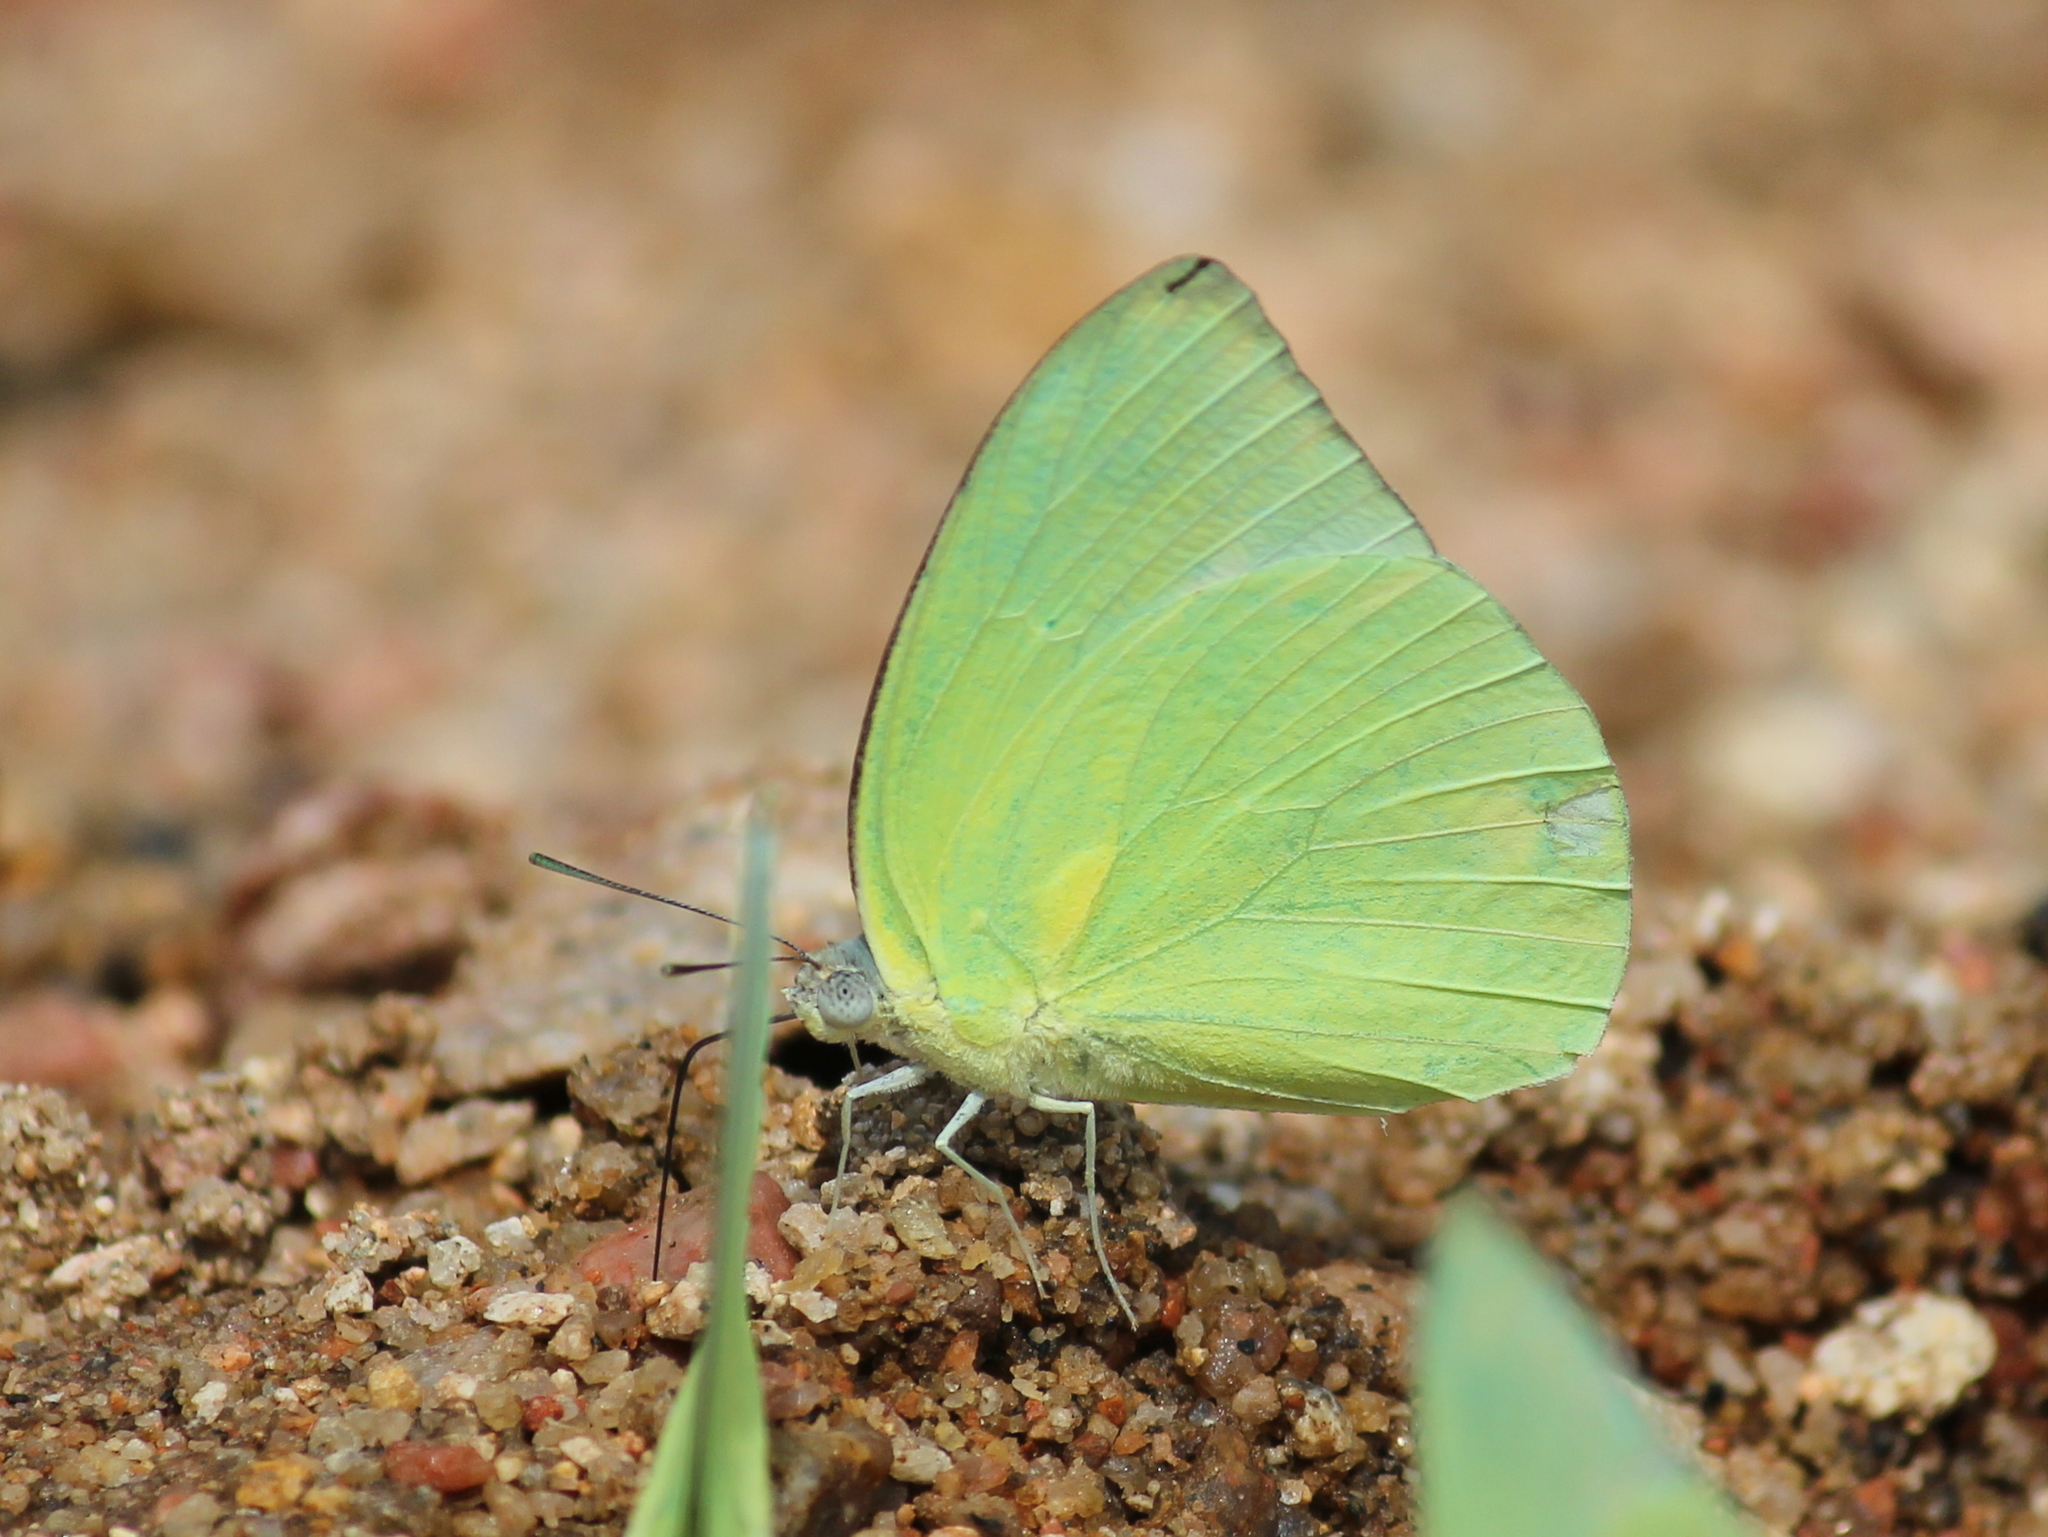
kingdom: Animalia
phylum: Arthropoda
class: Insecta
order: Lepidoptera
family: Pieridae
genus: Catopsilia
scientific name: Catopsilia pomona
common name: Common emigrant
